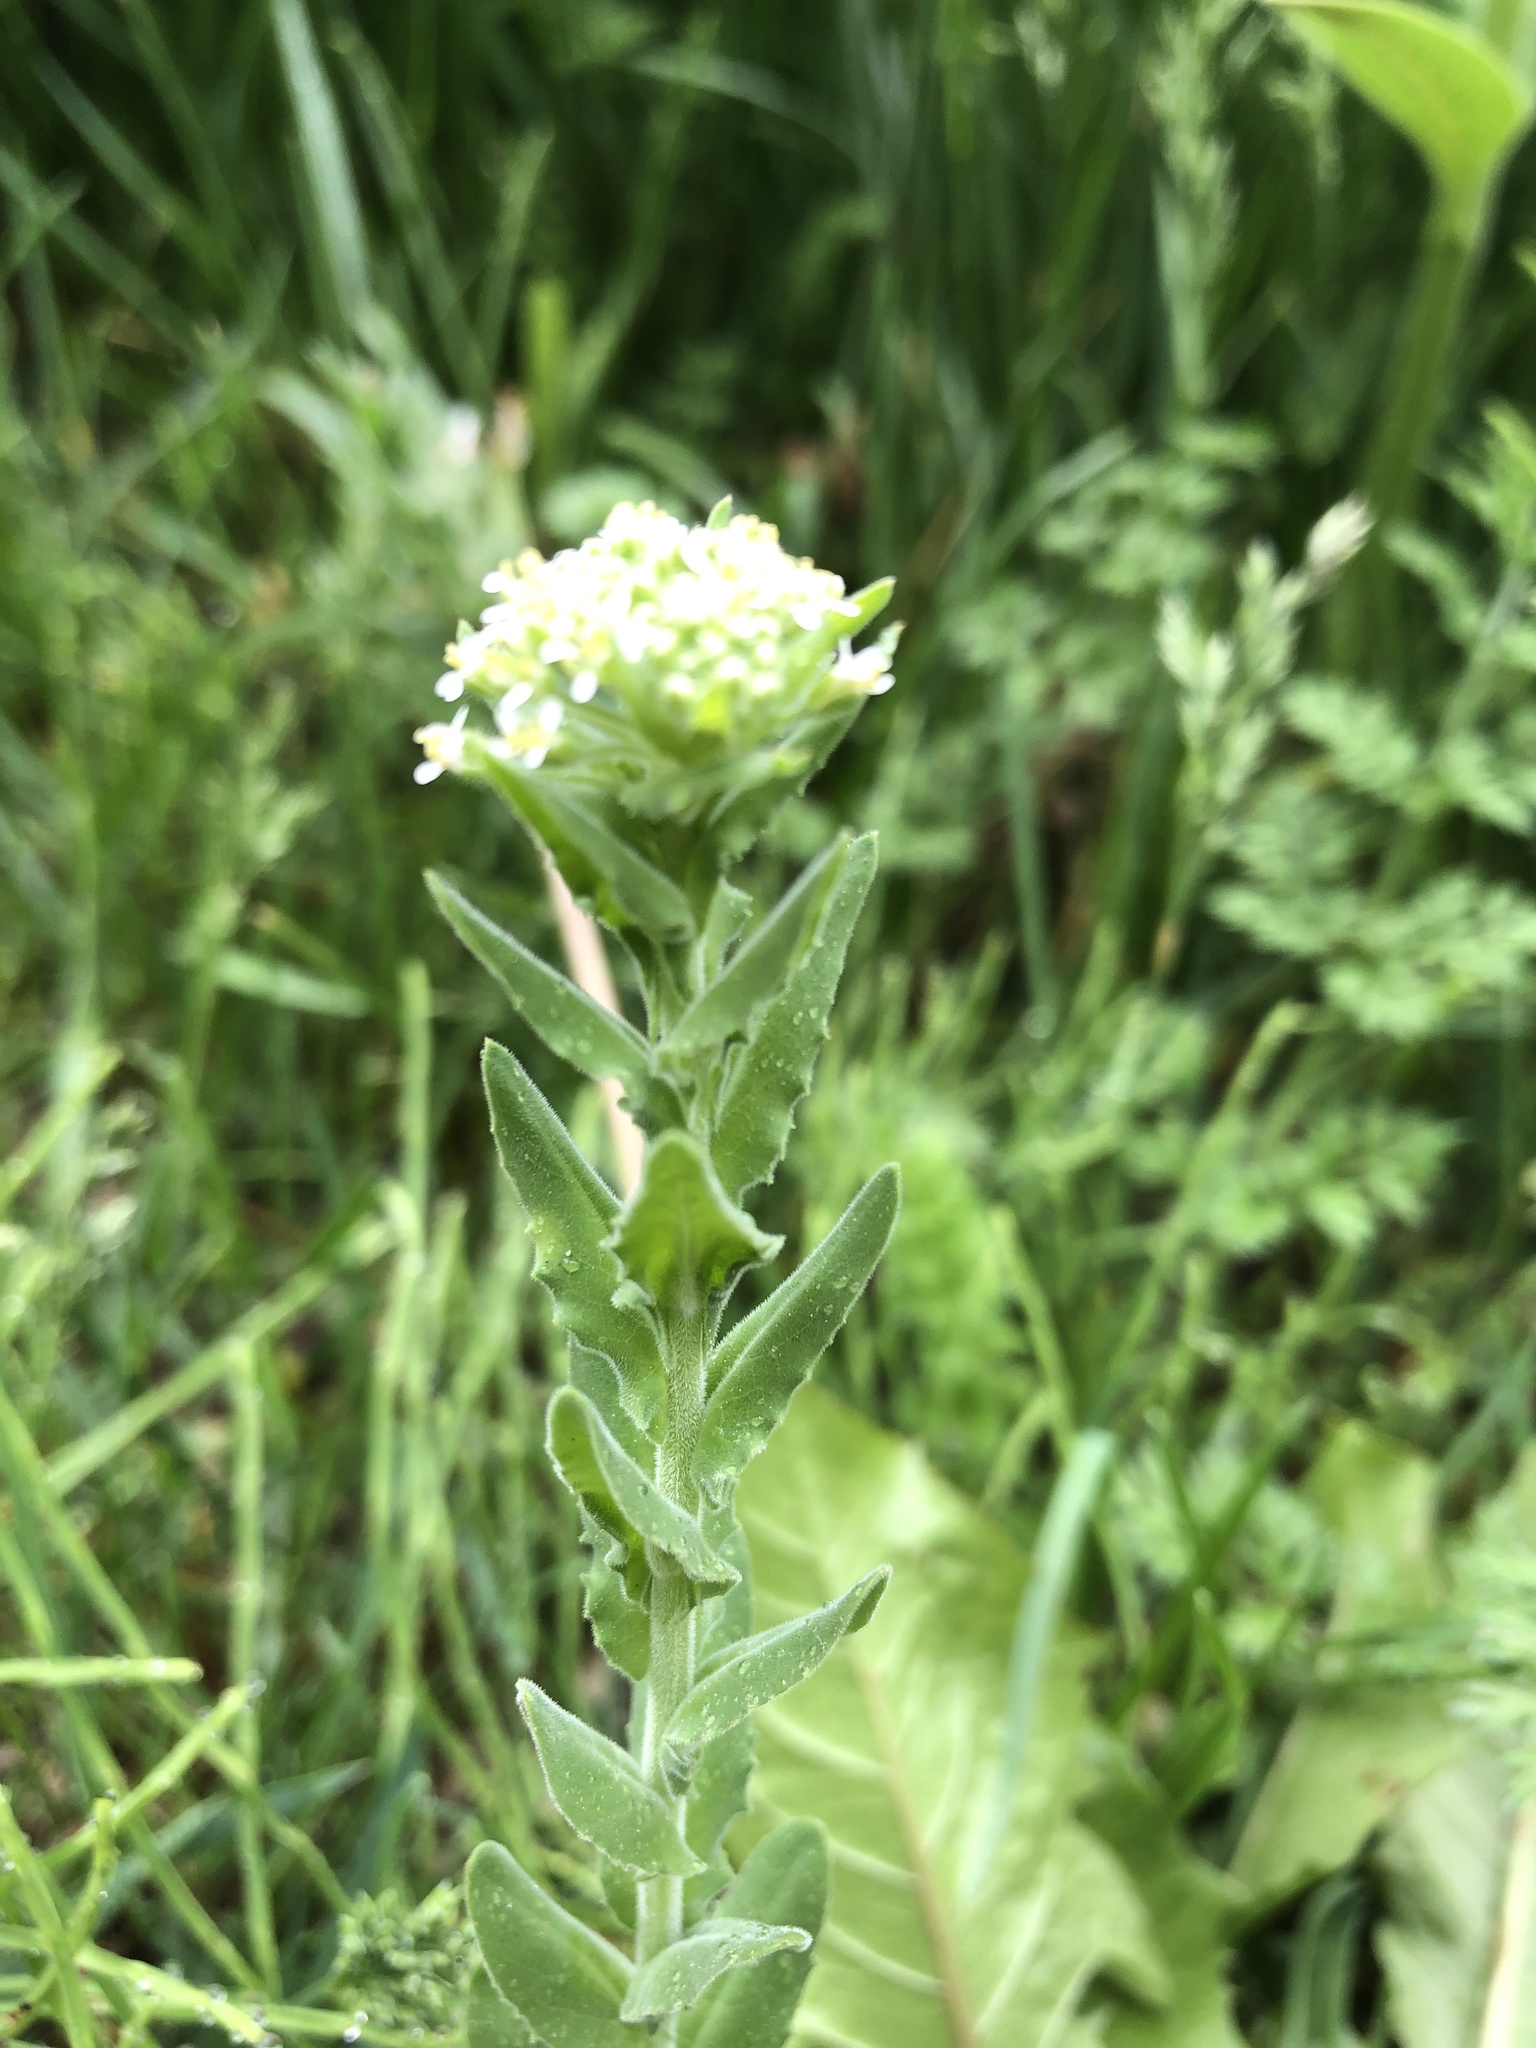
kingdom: Plantae
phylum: Tracheophyta
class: Magnoliopsida
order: Brassicales
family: Brassicaceae
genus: Lepidium
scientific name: Lepidium campestre
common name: Field pepperwort
